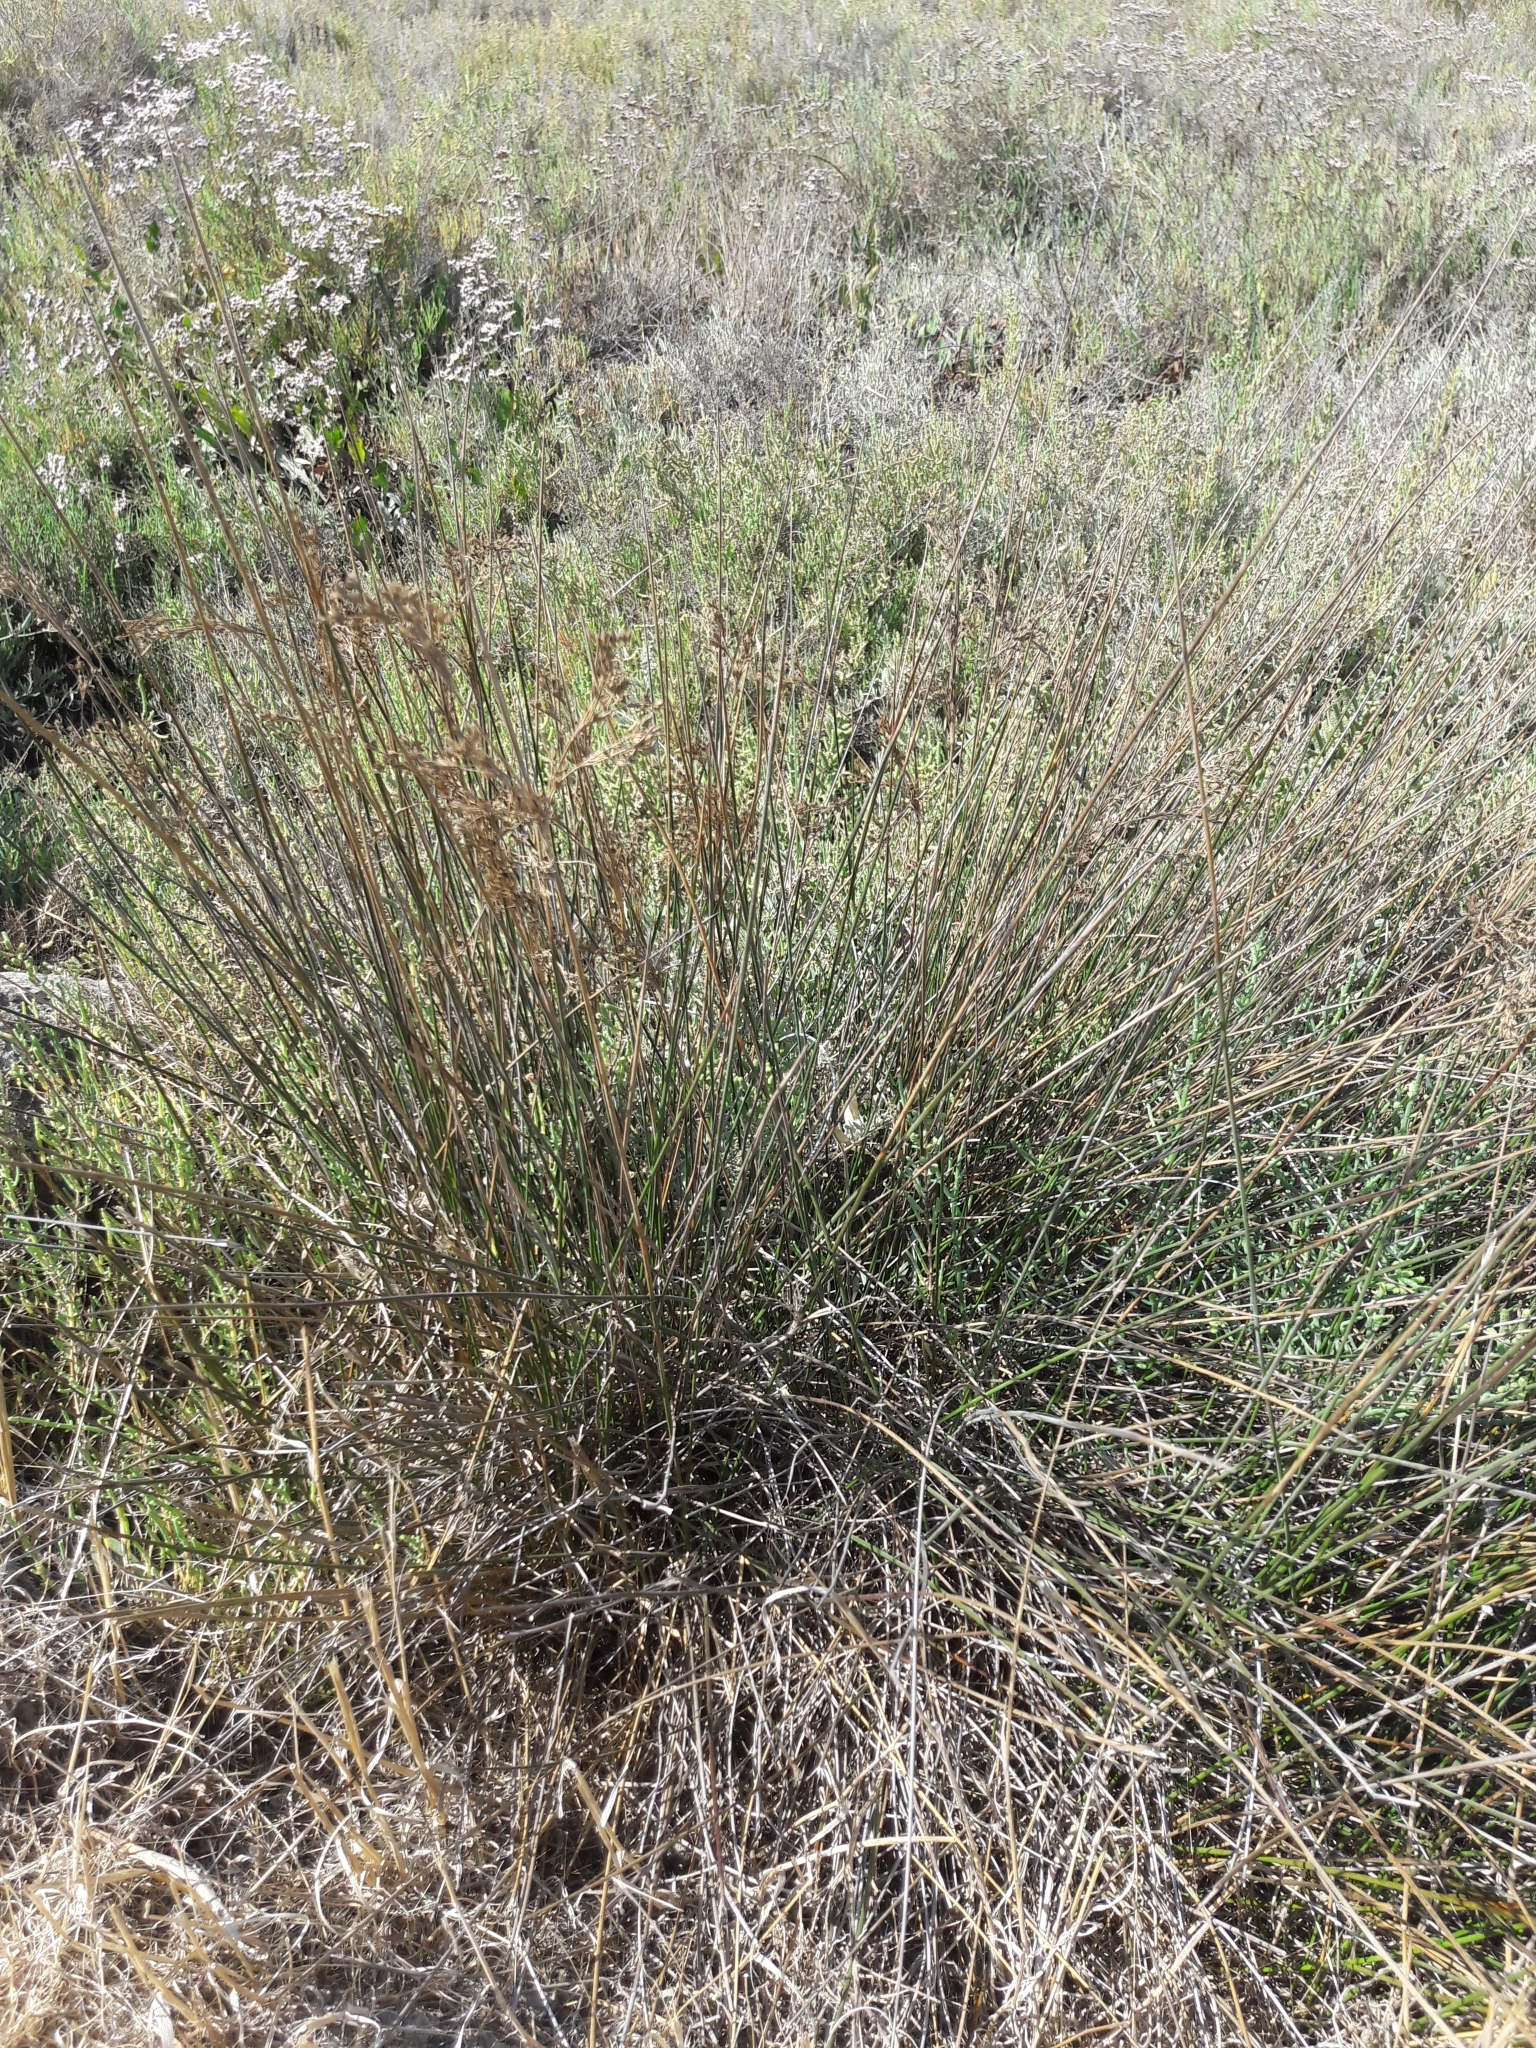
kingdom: Plantae
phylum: Tracheophyta
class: Liliopsida
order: Poales
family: Juncaceae
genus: Juncus
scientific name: Juncus maritimus
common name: Sea rush
